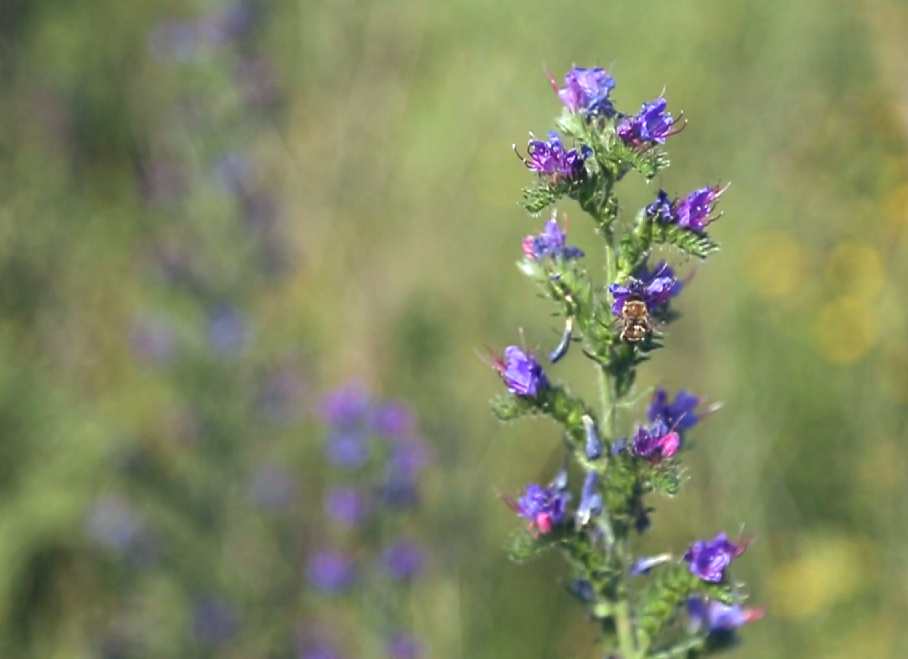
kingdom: Plantae
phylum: Tracheophyta
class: Magnoliopsida
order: Boraginales
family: Boraginaceae
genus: Echium
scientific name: Echium vulgare
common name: Common viper's bugloss
